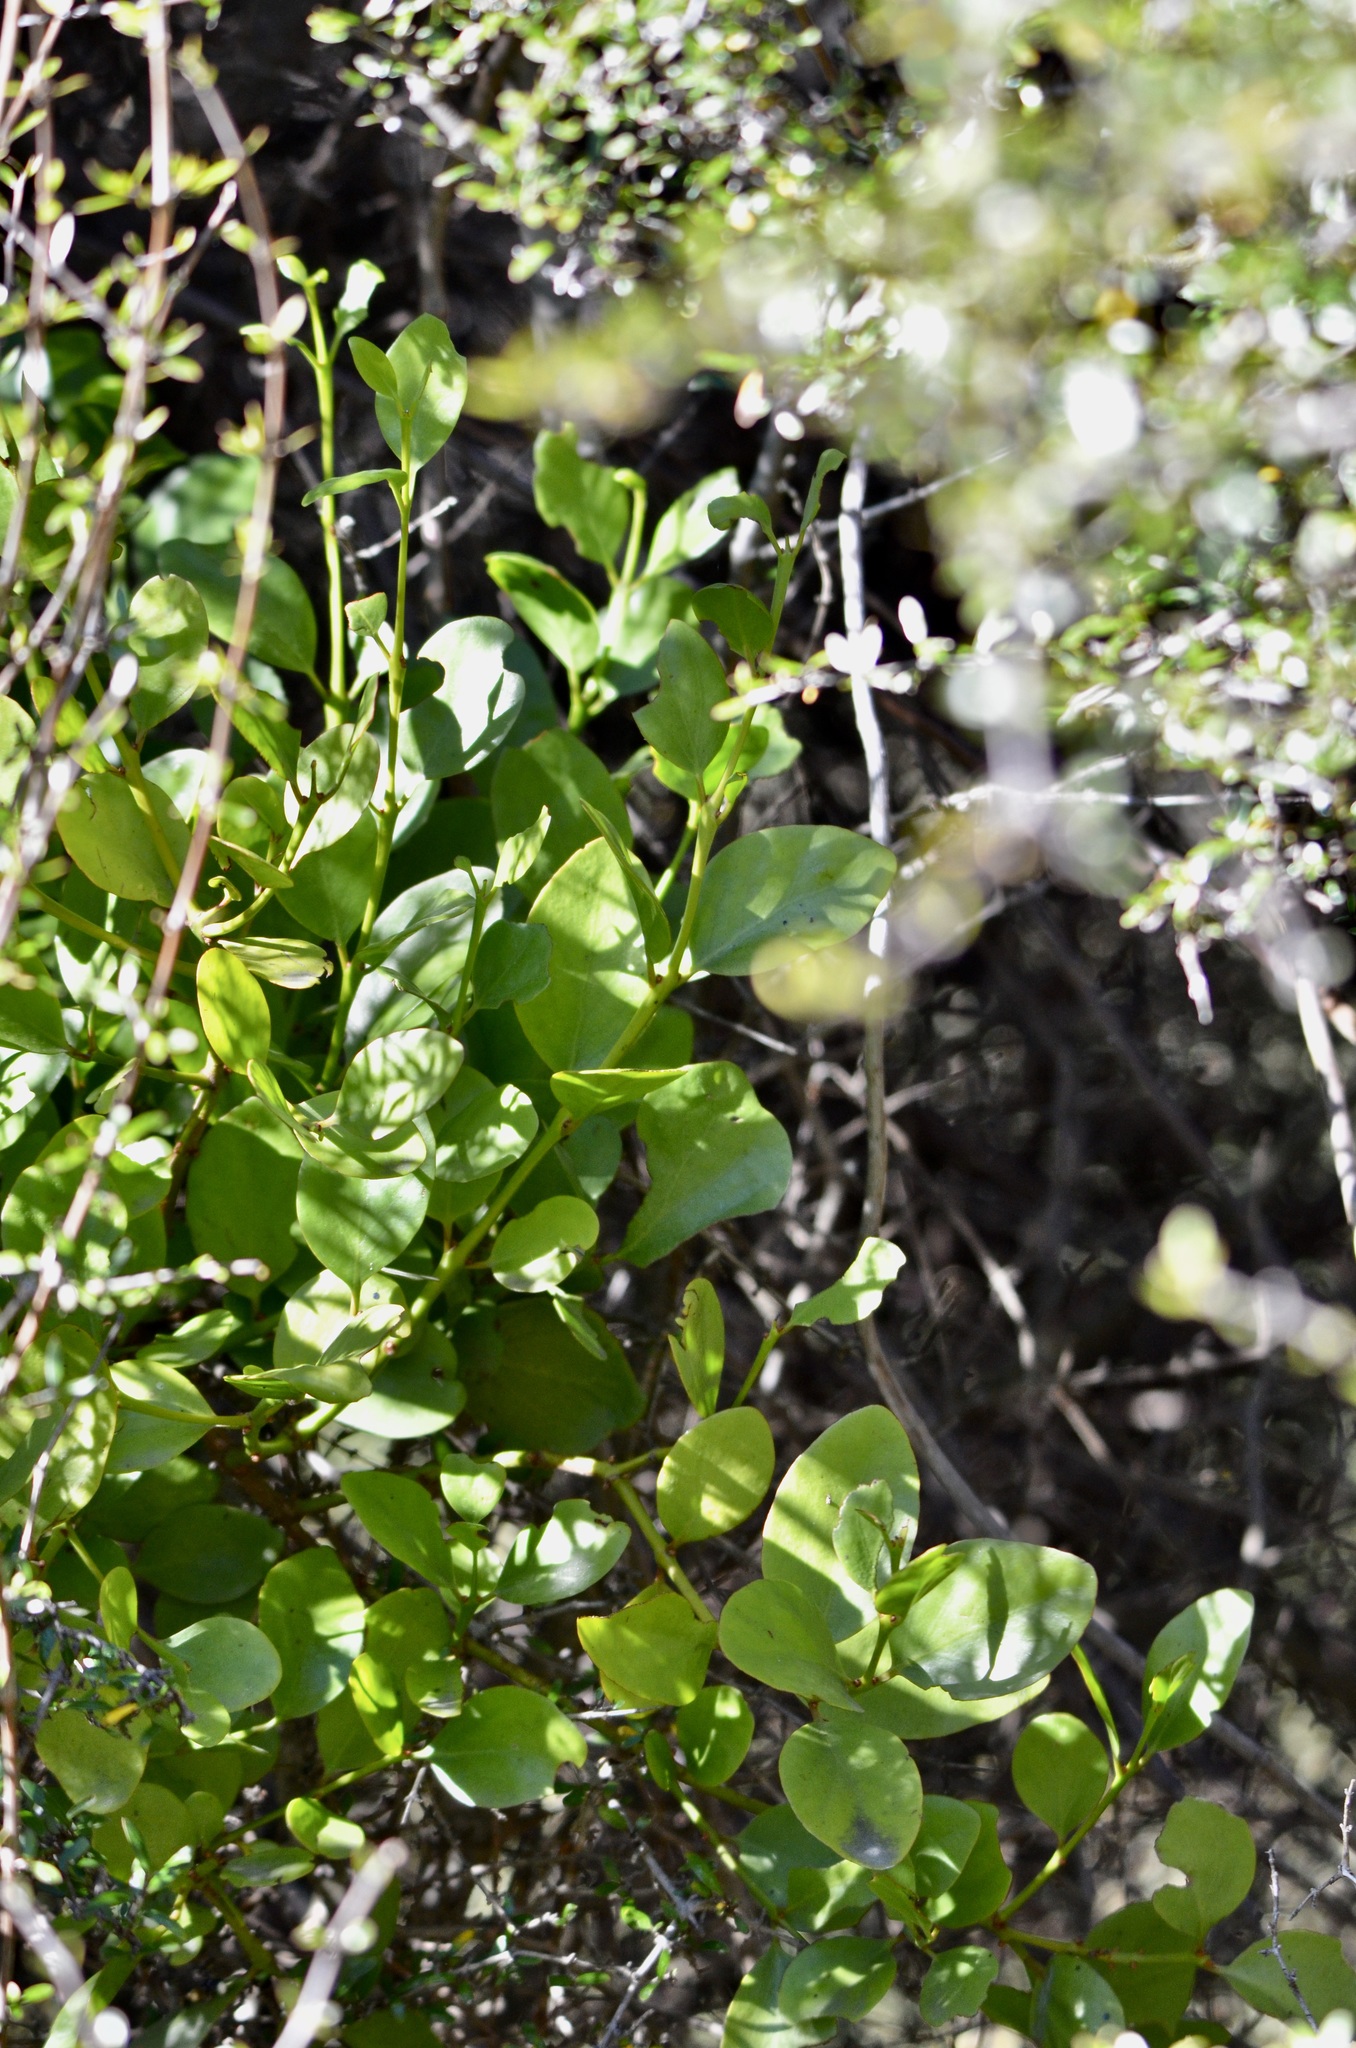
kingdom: Plantae
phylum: Tracheophyta
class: Magnoliopsida
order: Santalales
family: Loranthaceae
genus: Ileostylus
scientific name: Ileostylus micranthus
